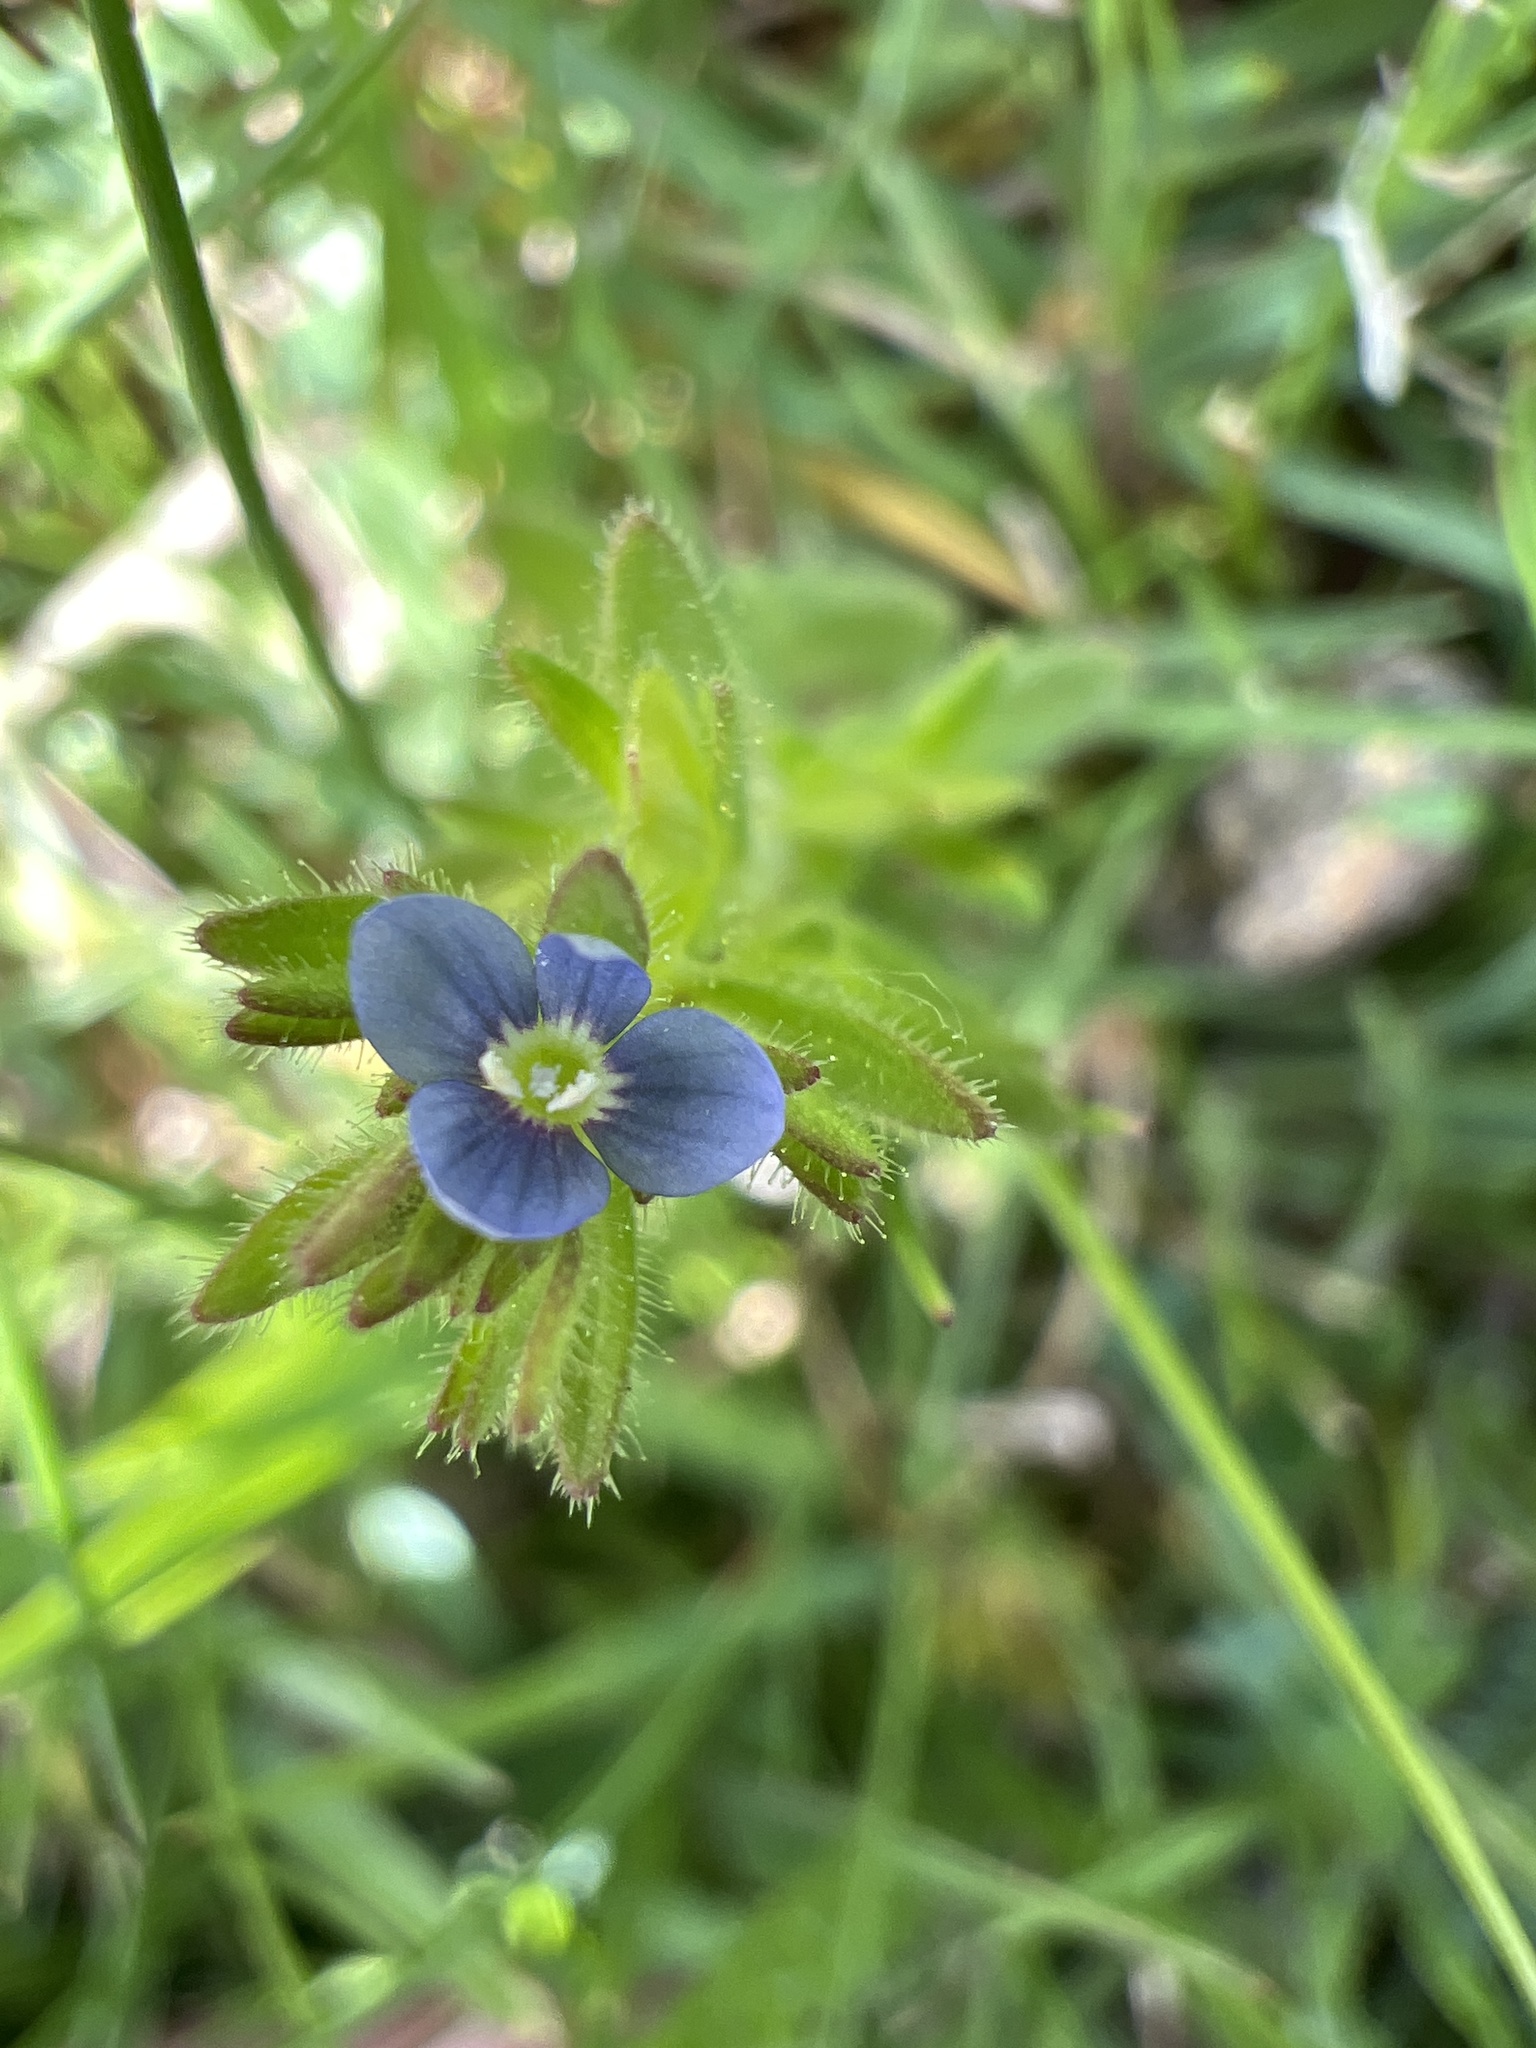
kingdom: Plantae
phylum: Tracheophyta
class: Magnoliopsida
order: Lamiales
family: Plantaginaceae
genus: Veronica
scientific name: Veronica arvensis
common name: Corn speedwell
